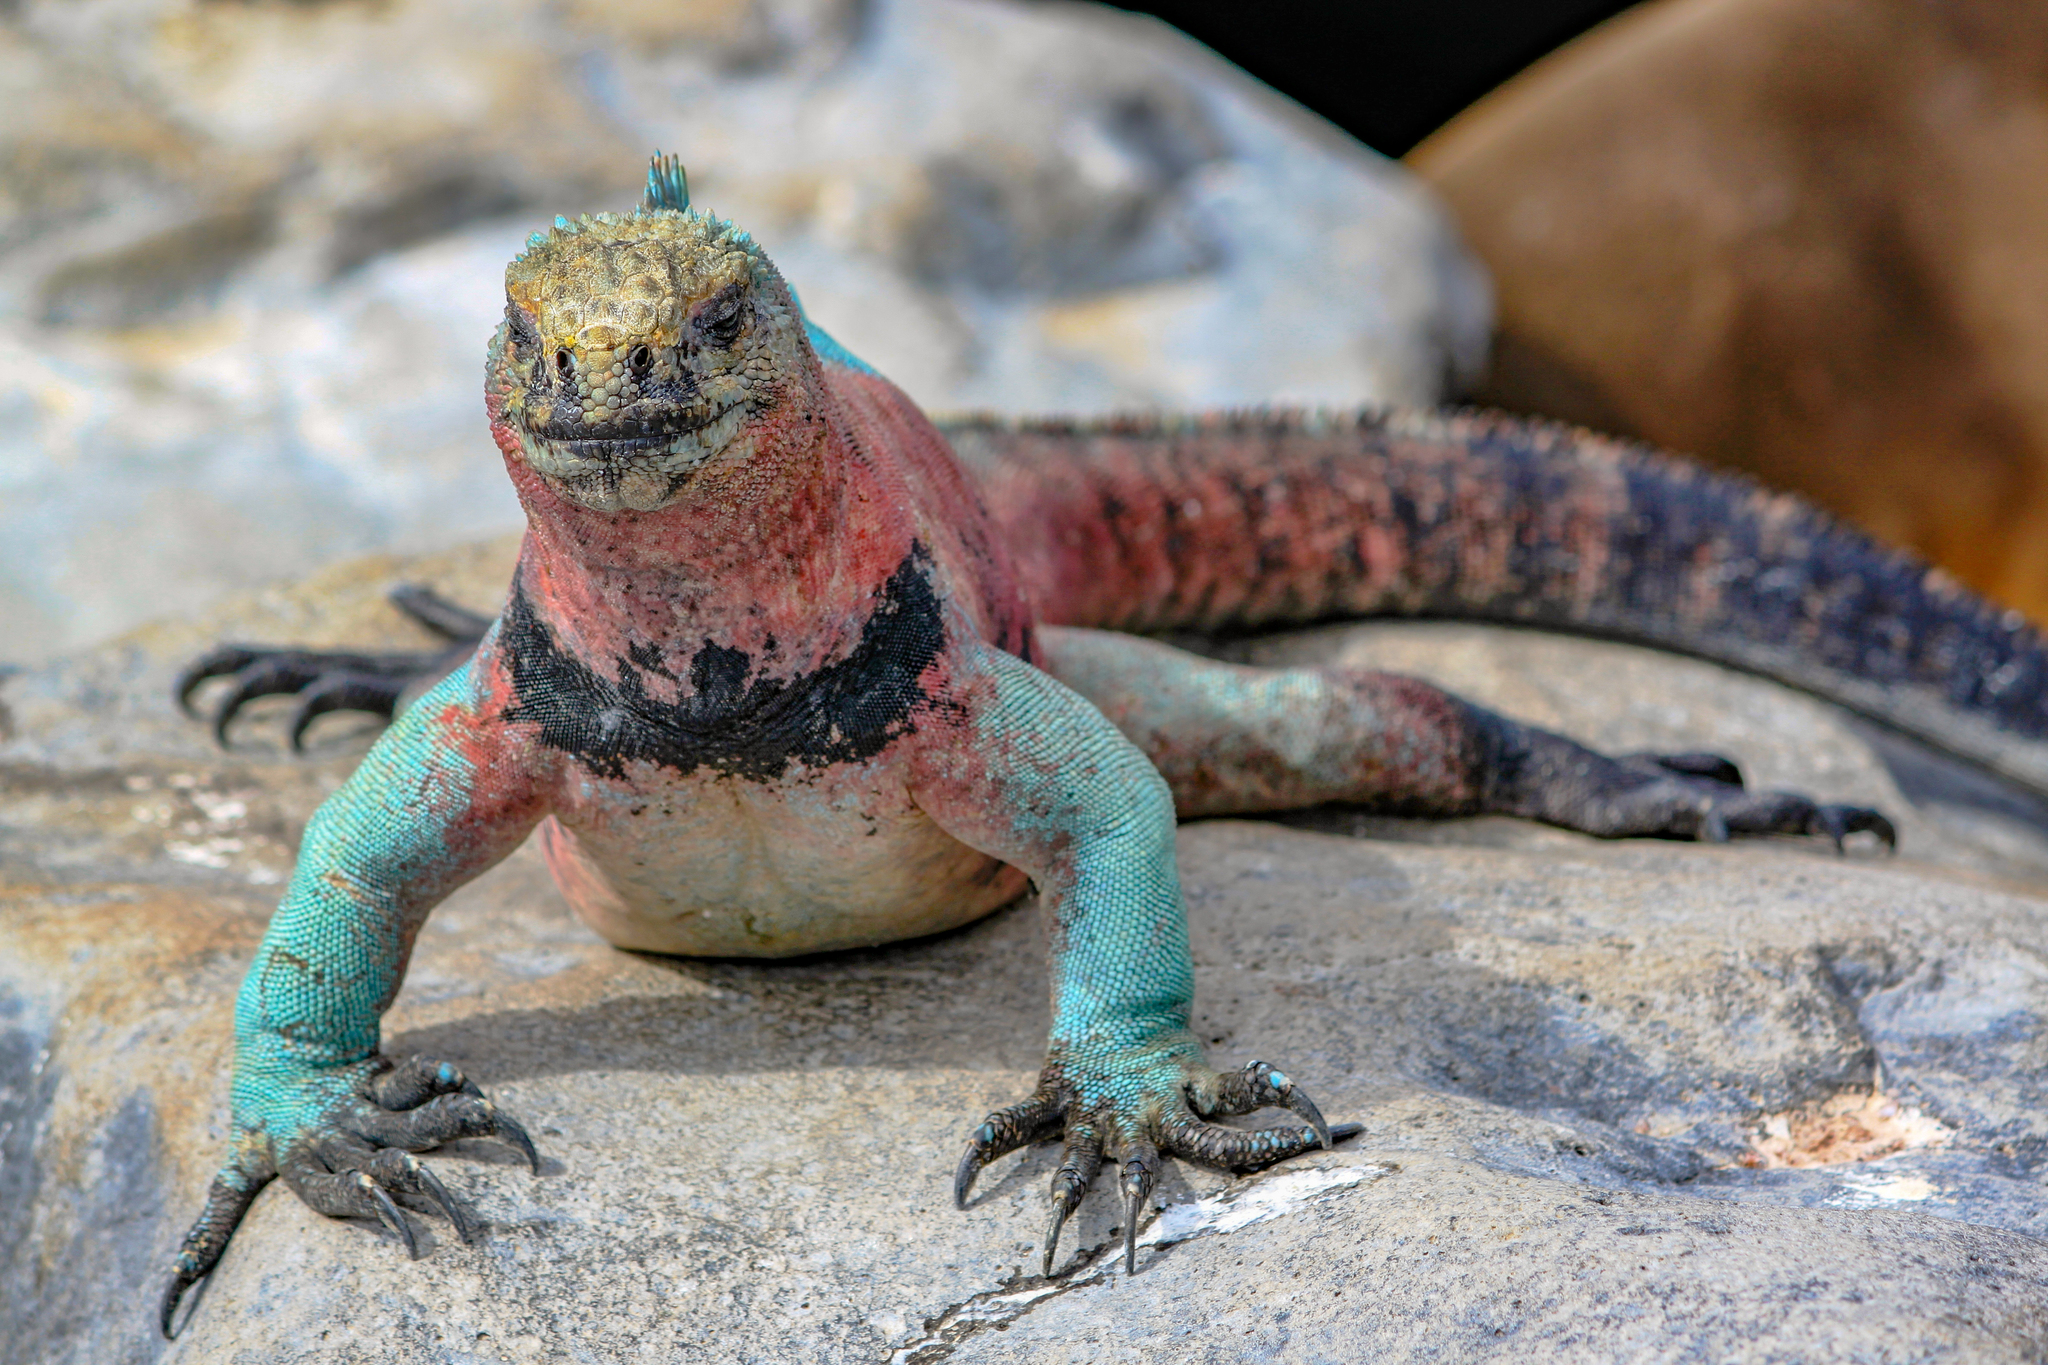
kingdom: Animalia
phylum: Chordata
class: Squamata
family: Iguanidae
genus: Amblyrhynchus
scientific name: Amblyrhynchus cristatus
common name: Marine iguana
